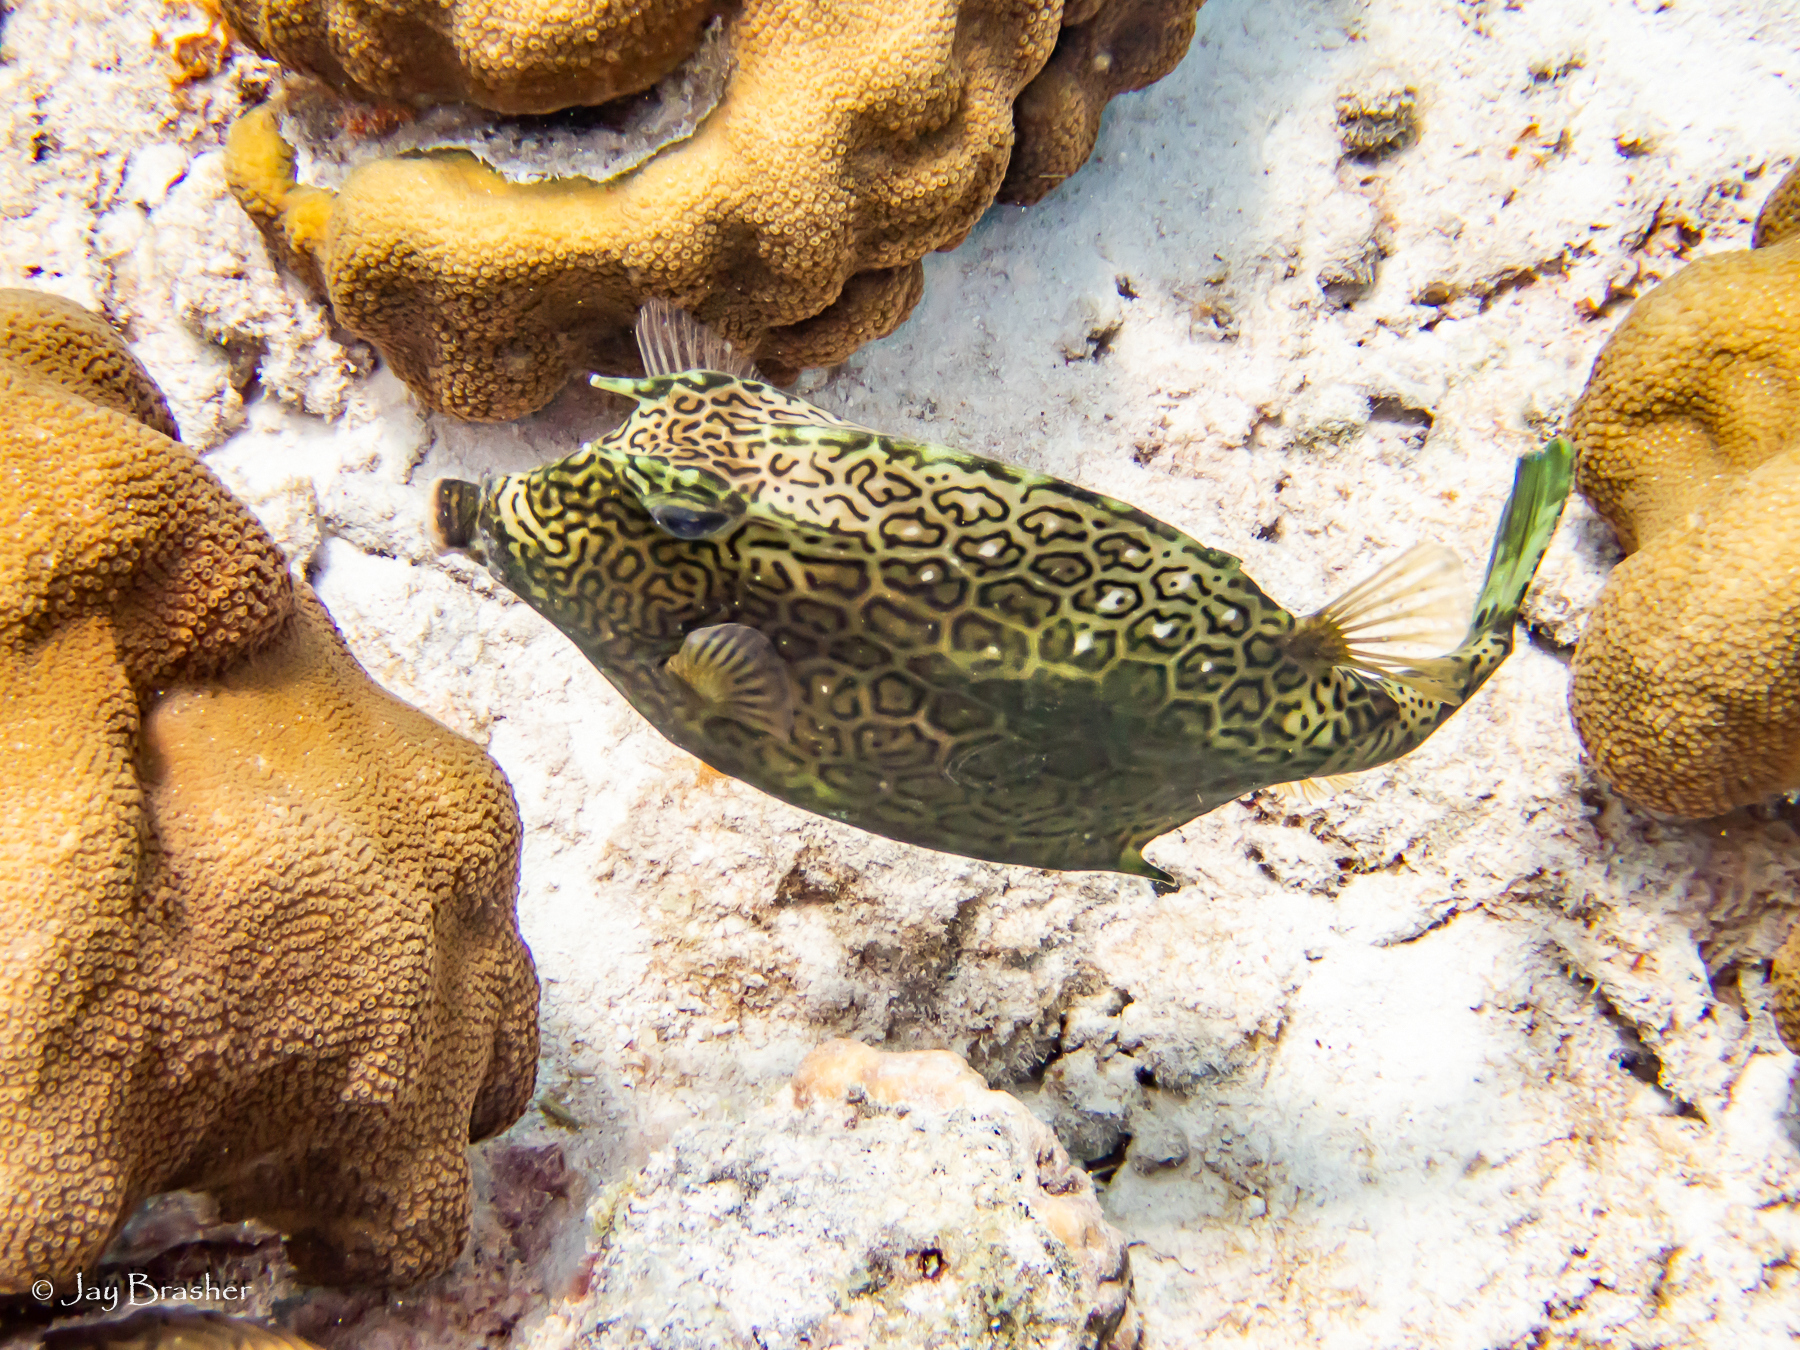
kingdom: Animalia
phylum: Chordata
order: Tetraodontiformes
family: Ostraciidae
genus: Acanthostracion
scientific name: Acanthostracion polygonius
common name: Honeycomb cowfish
